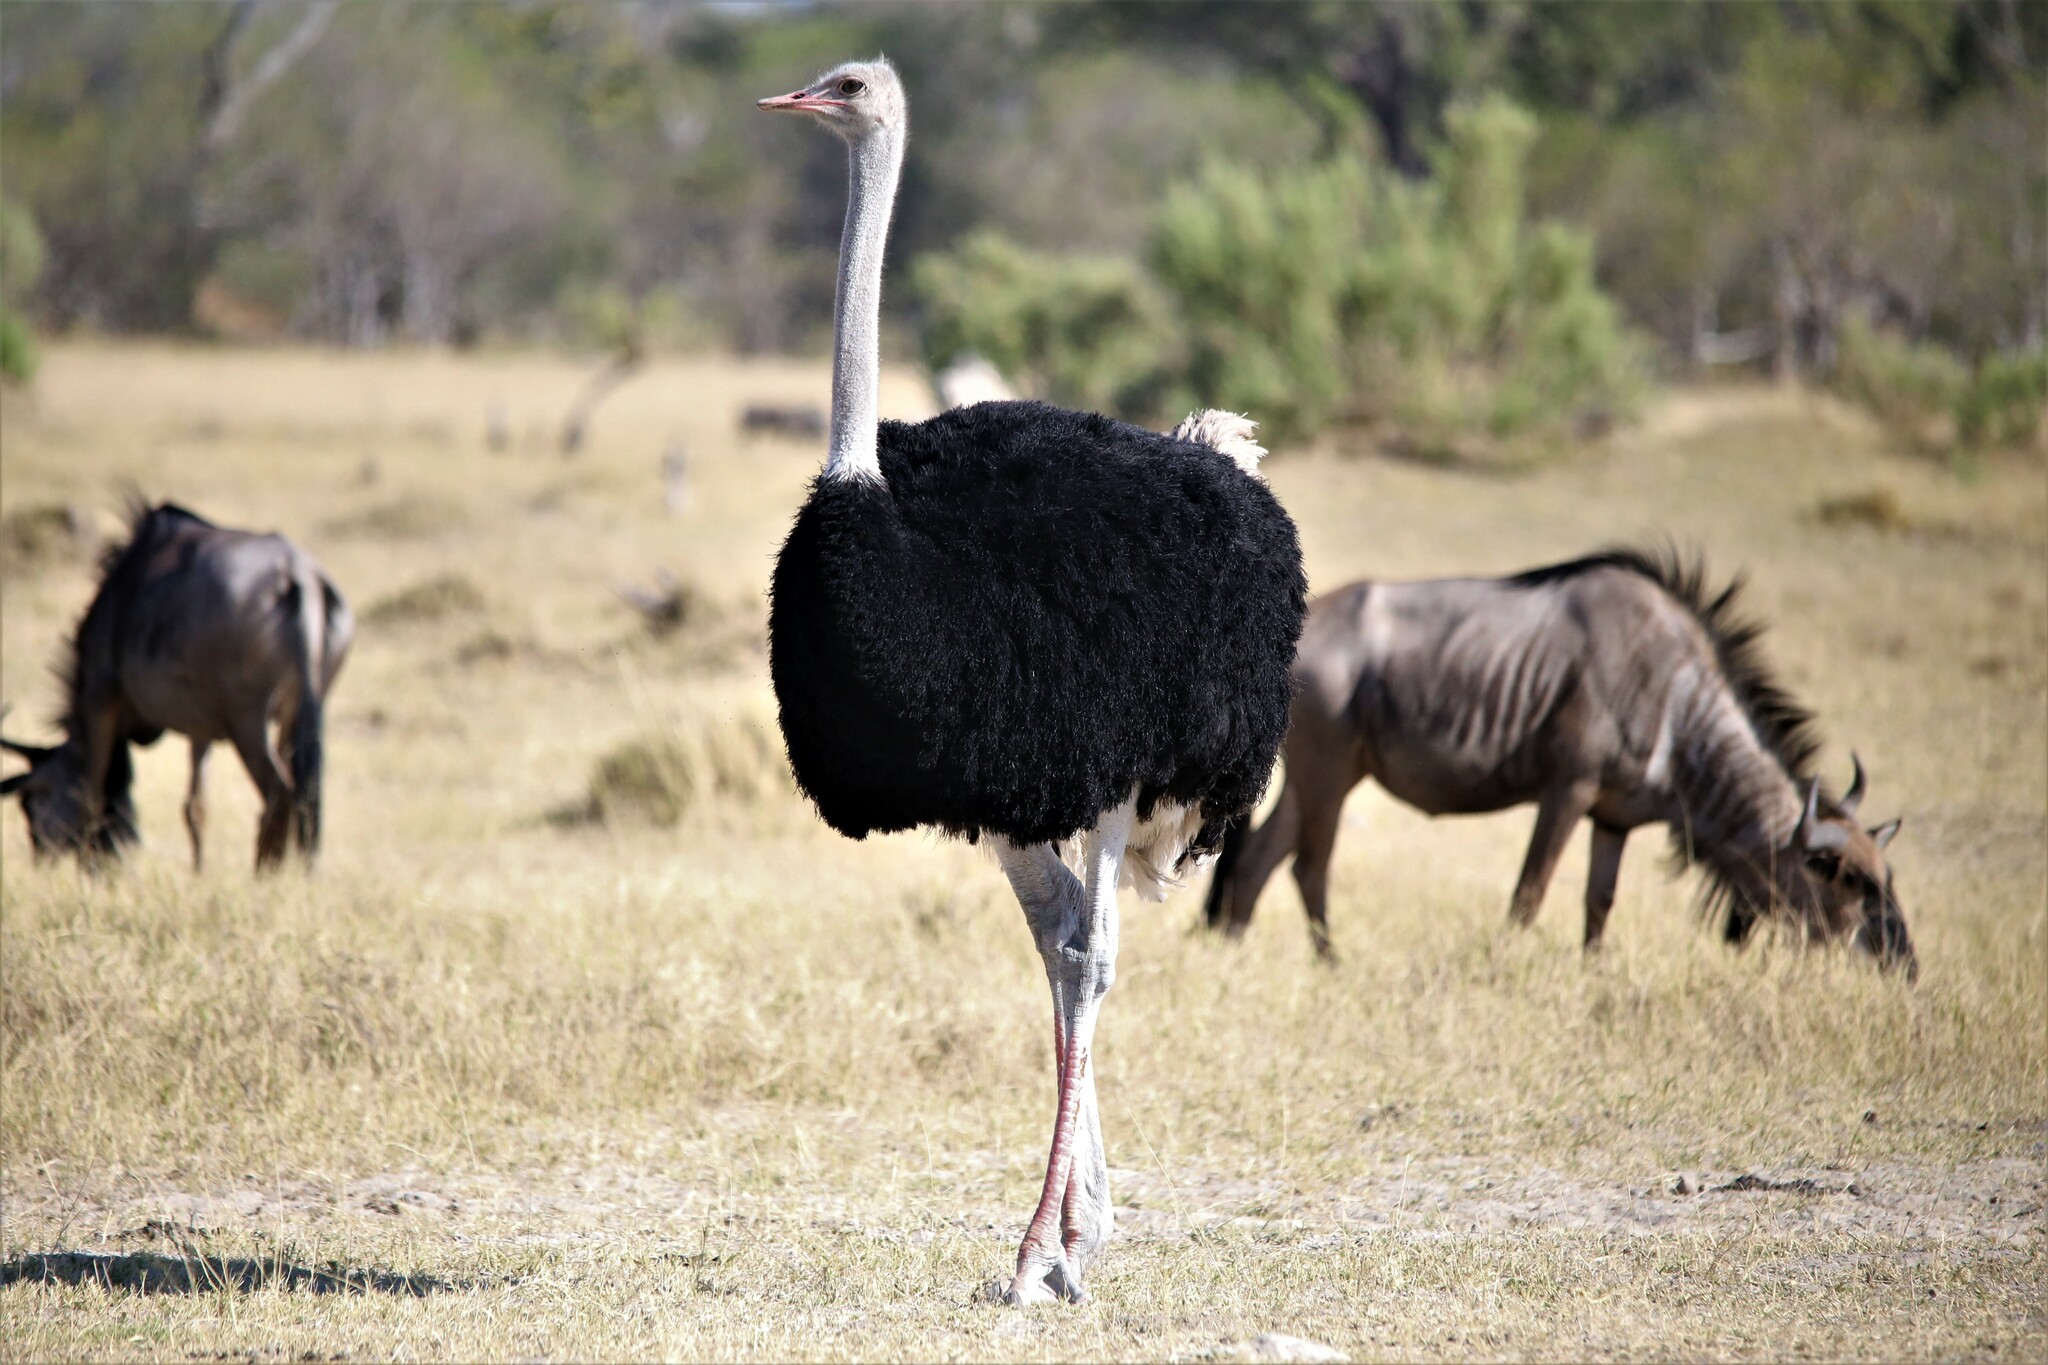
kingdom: Animalia
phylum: Chordata
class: Aves
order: Struthioniformes
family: Struthionidae
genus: Struthio
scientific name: Struthio camelus
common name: Common ostrich
